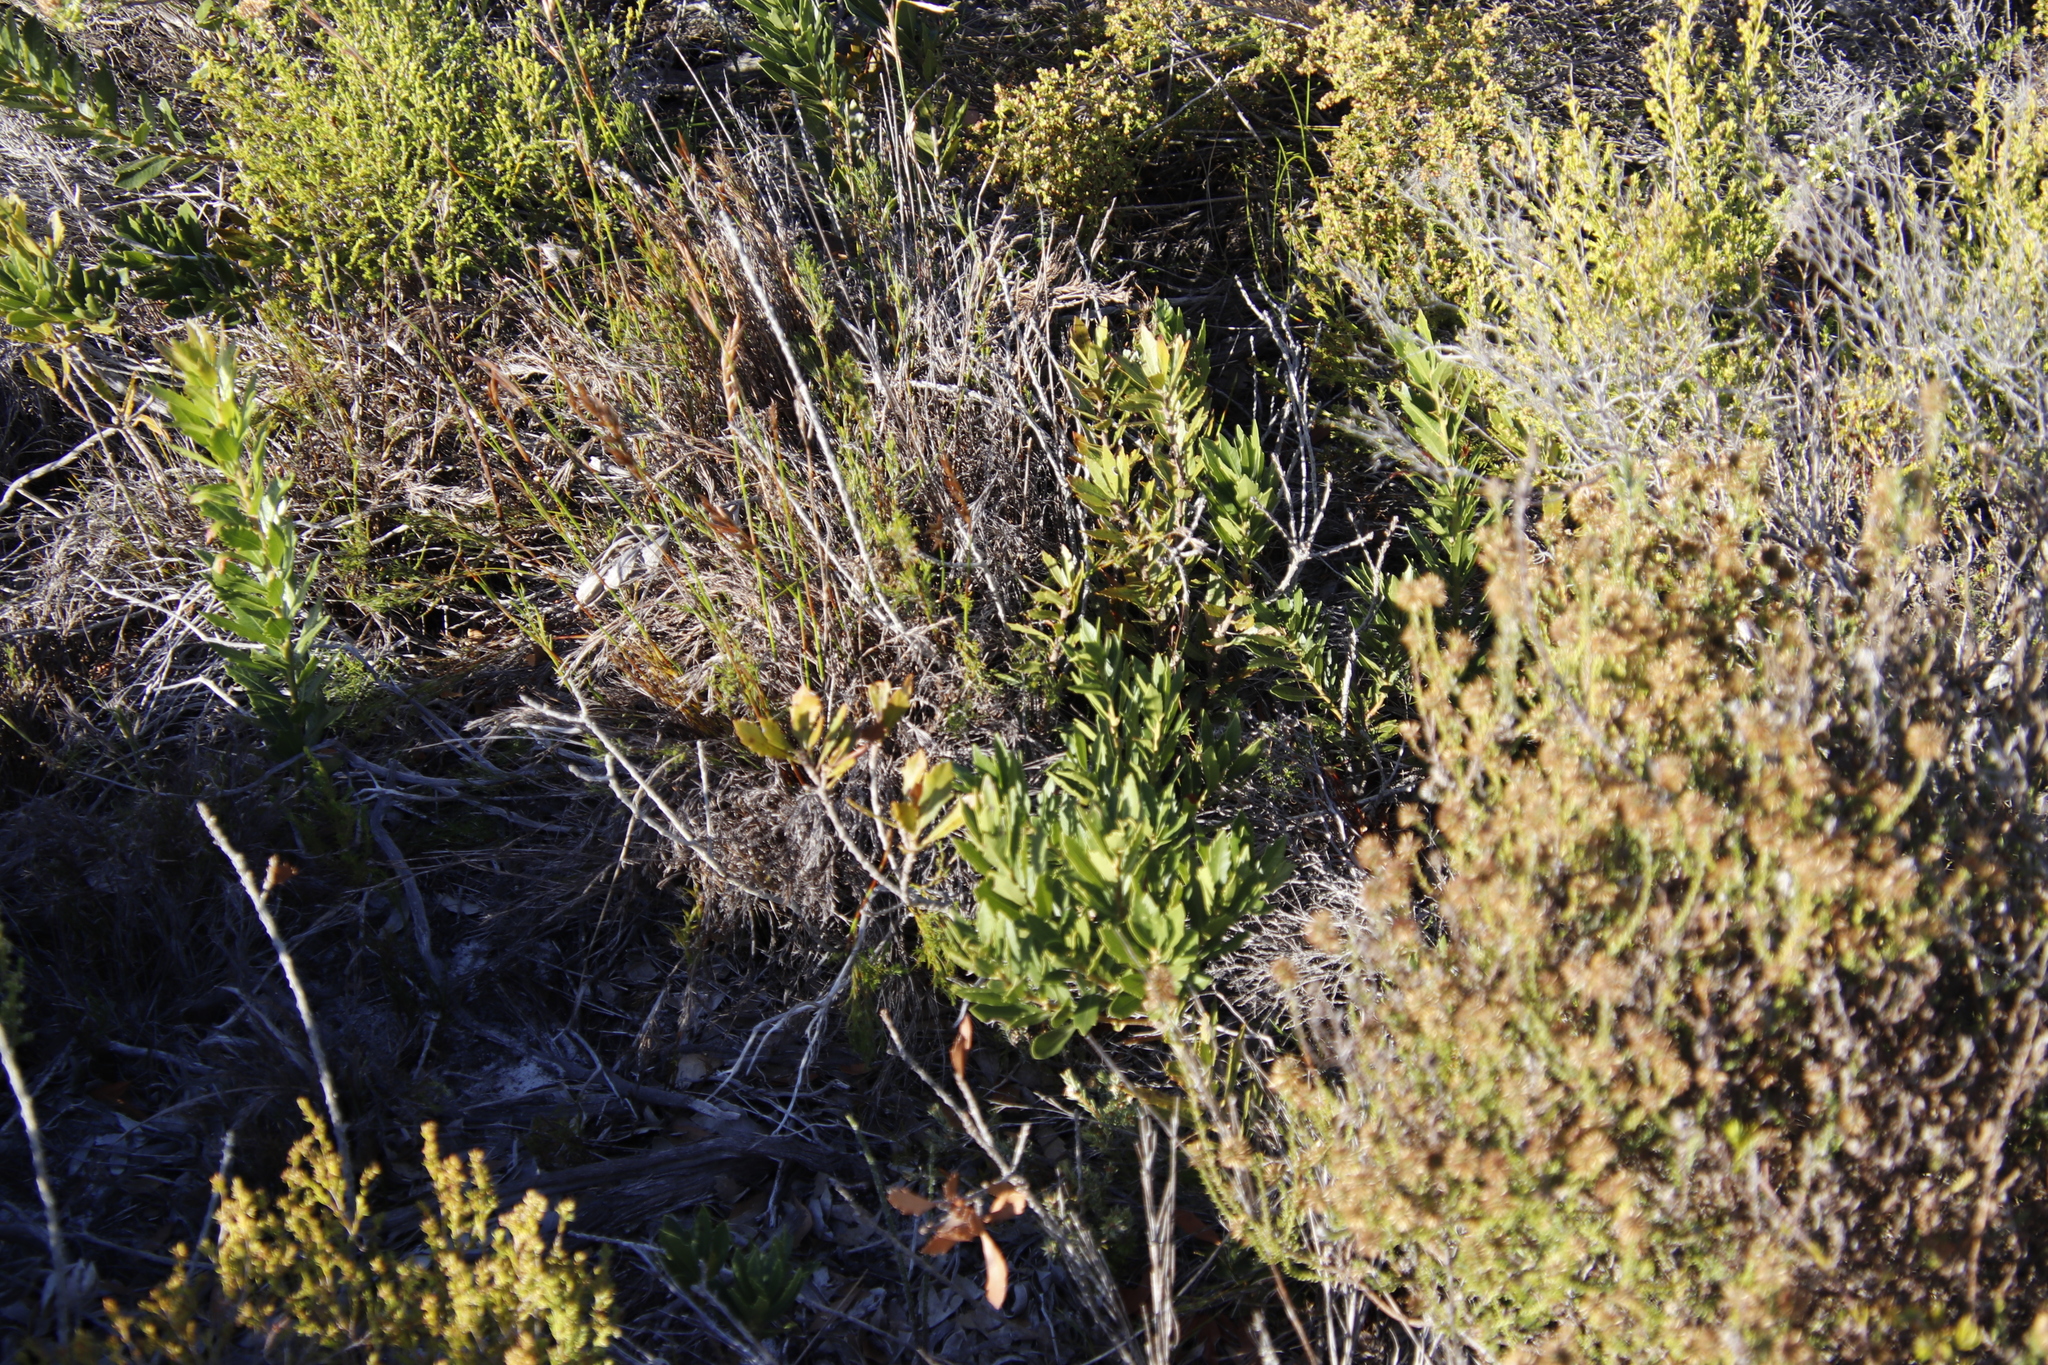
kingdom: Plantae
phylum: Tracheophyta
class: Magnoliopsida
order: Fagales
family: Myricaceae
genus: Morella
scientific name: Morella serrata
